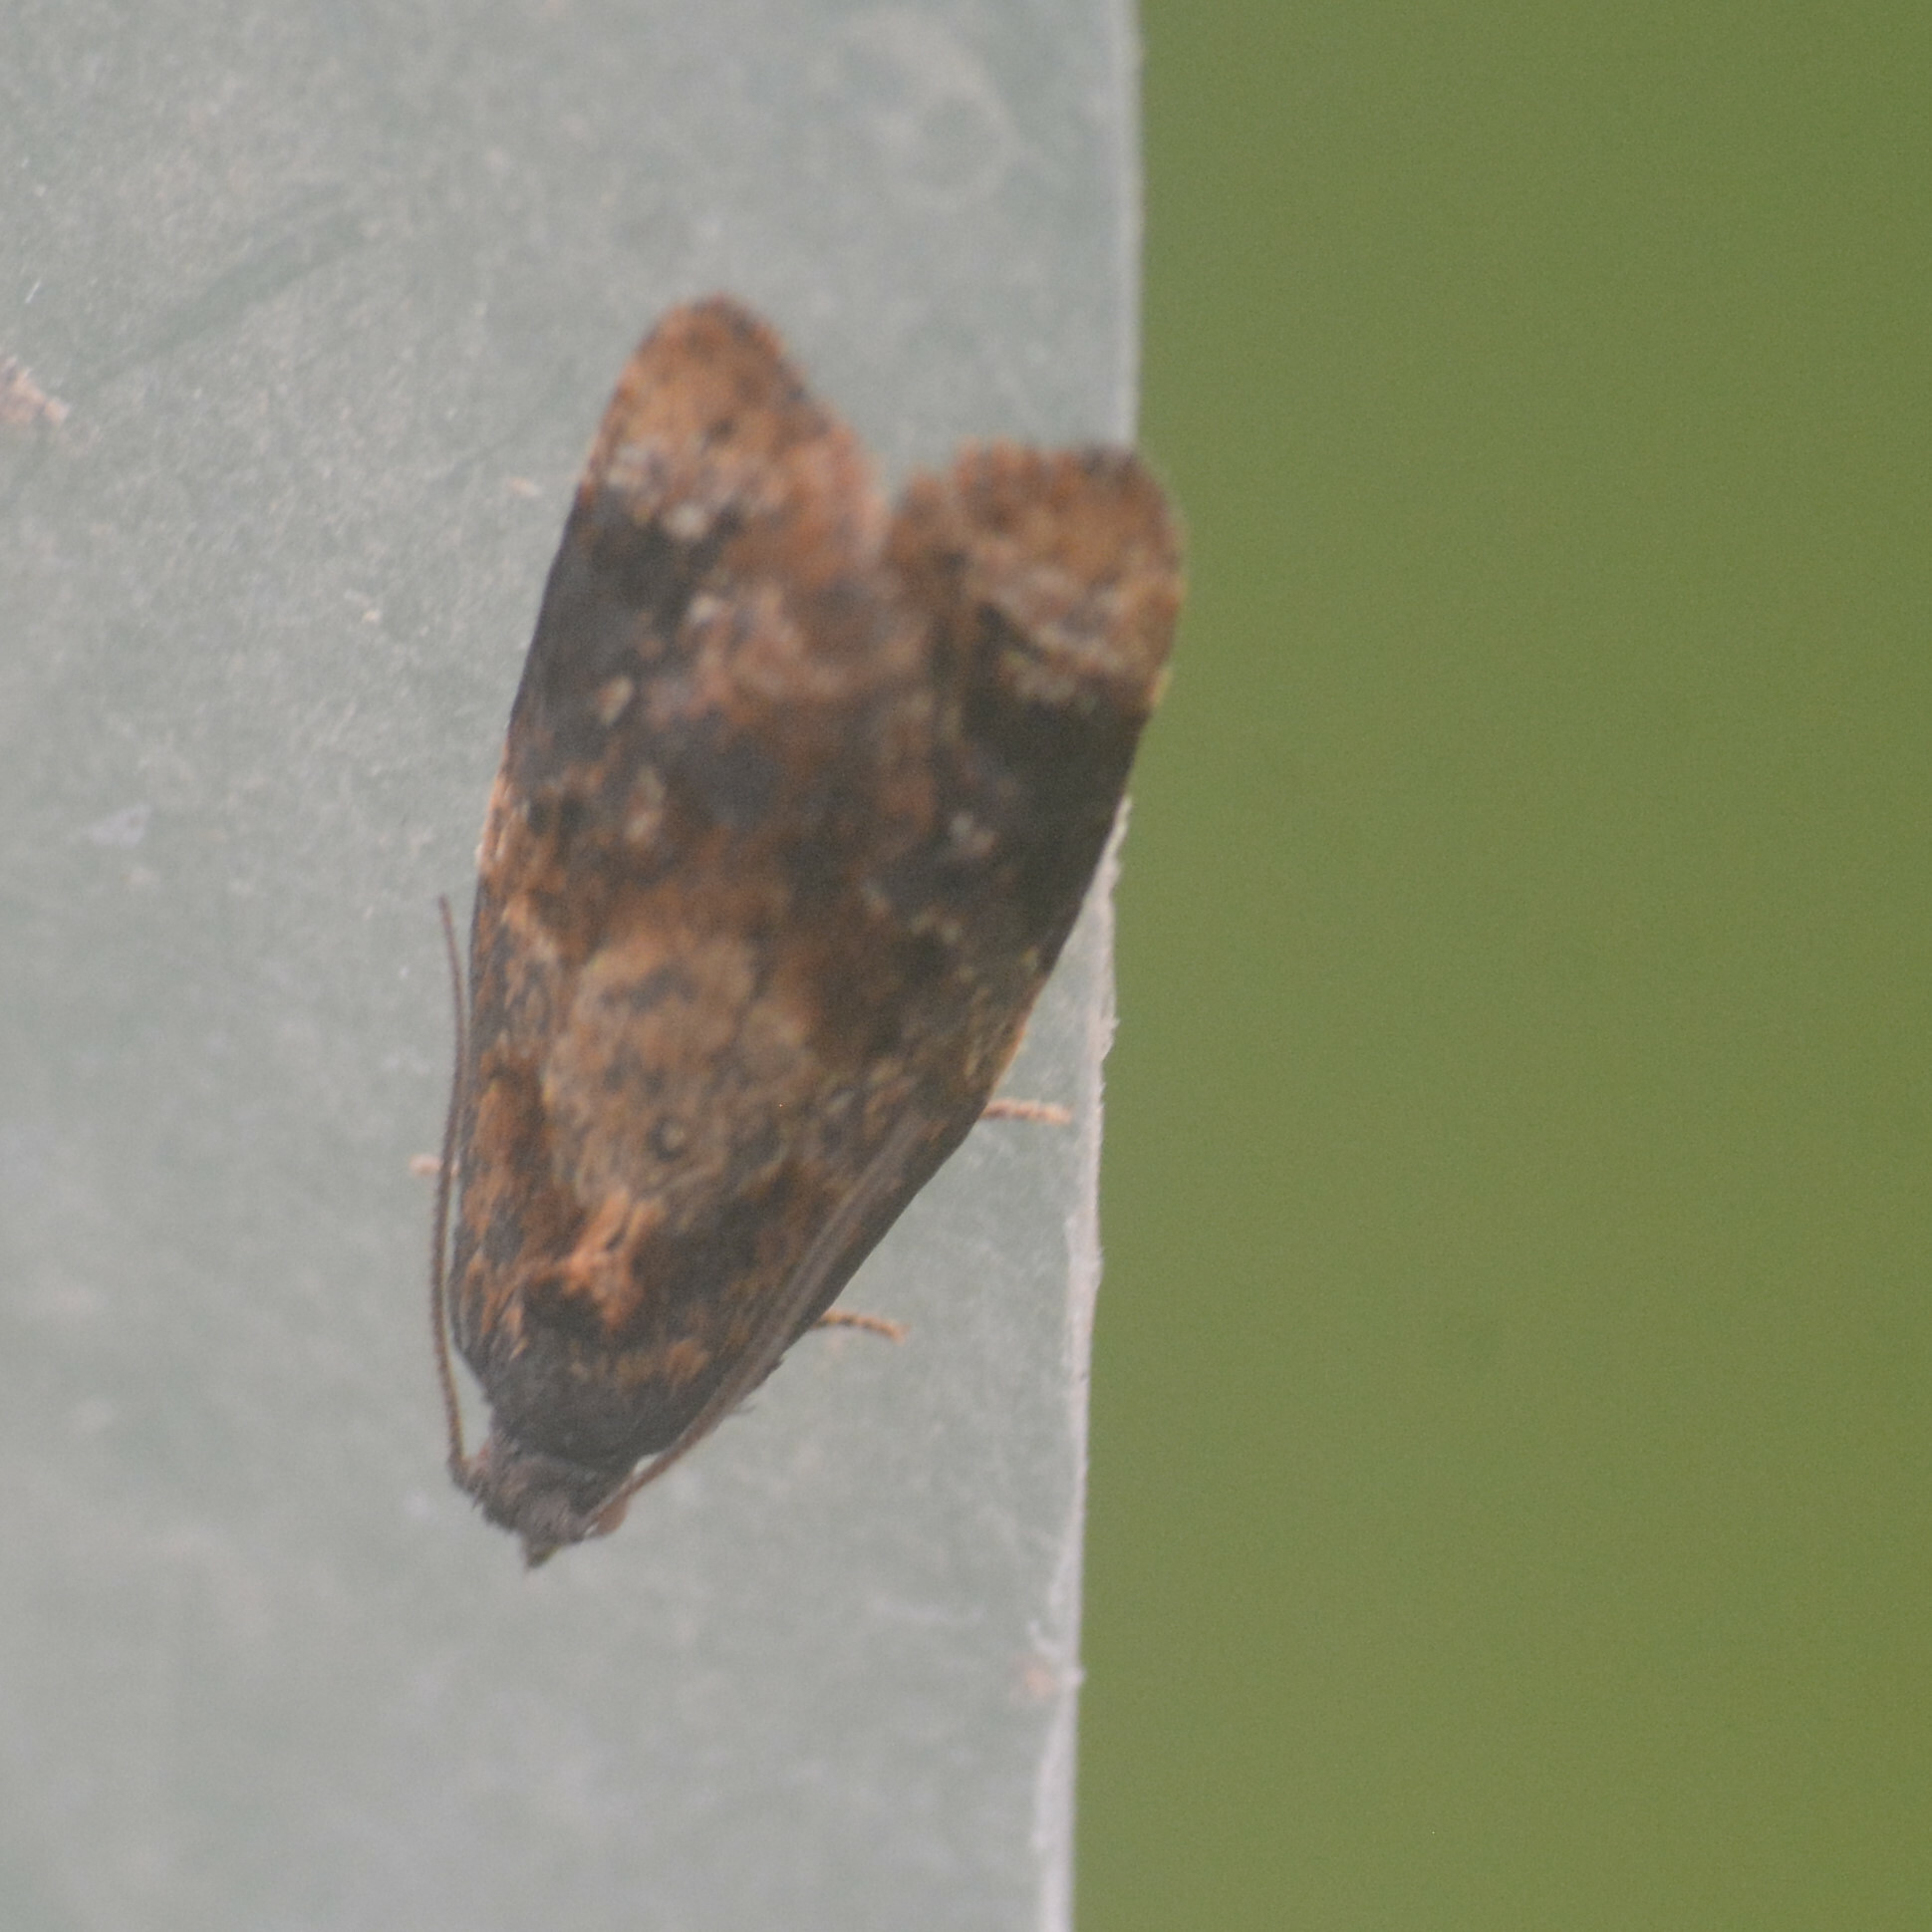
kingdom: Animalia
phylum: Arthropoda
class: Insecta
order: Lepidoptera
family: Tortricidae
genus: Ditula
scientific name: Ditula angustiorana
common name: Red-barred tortrix
